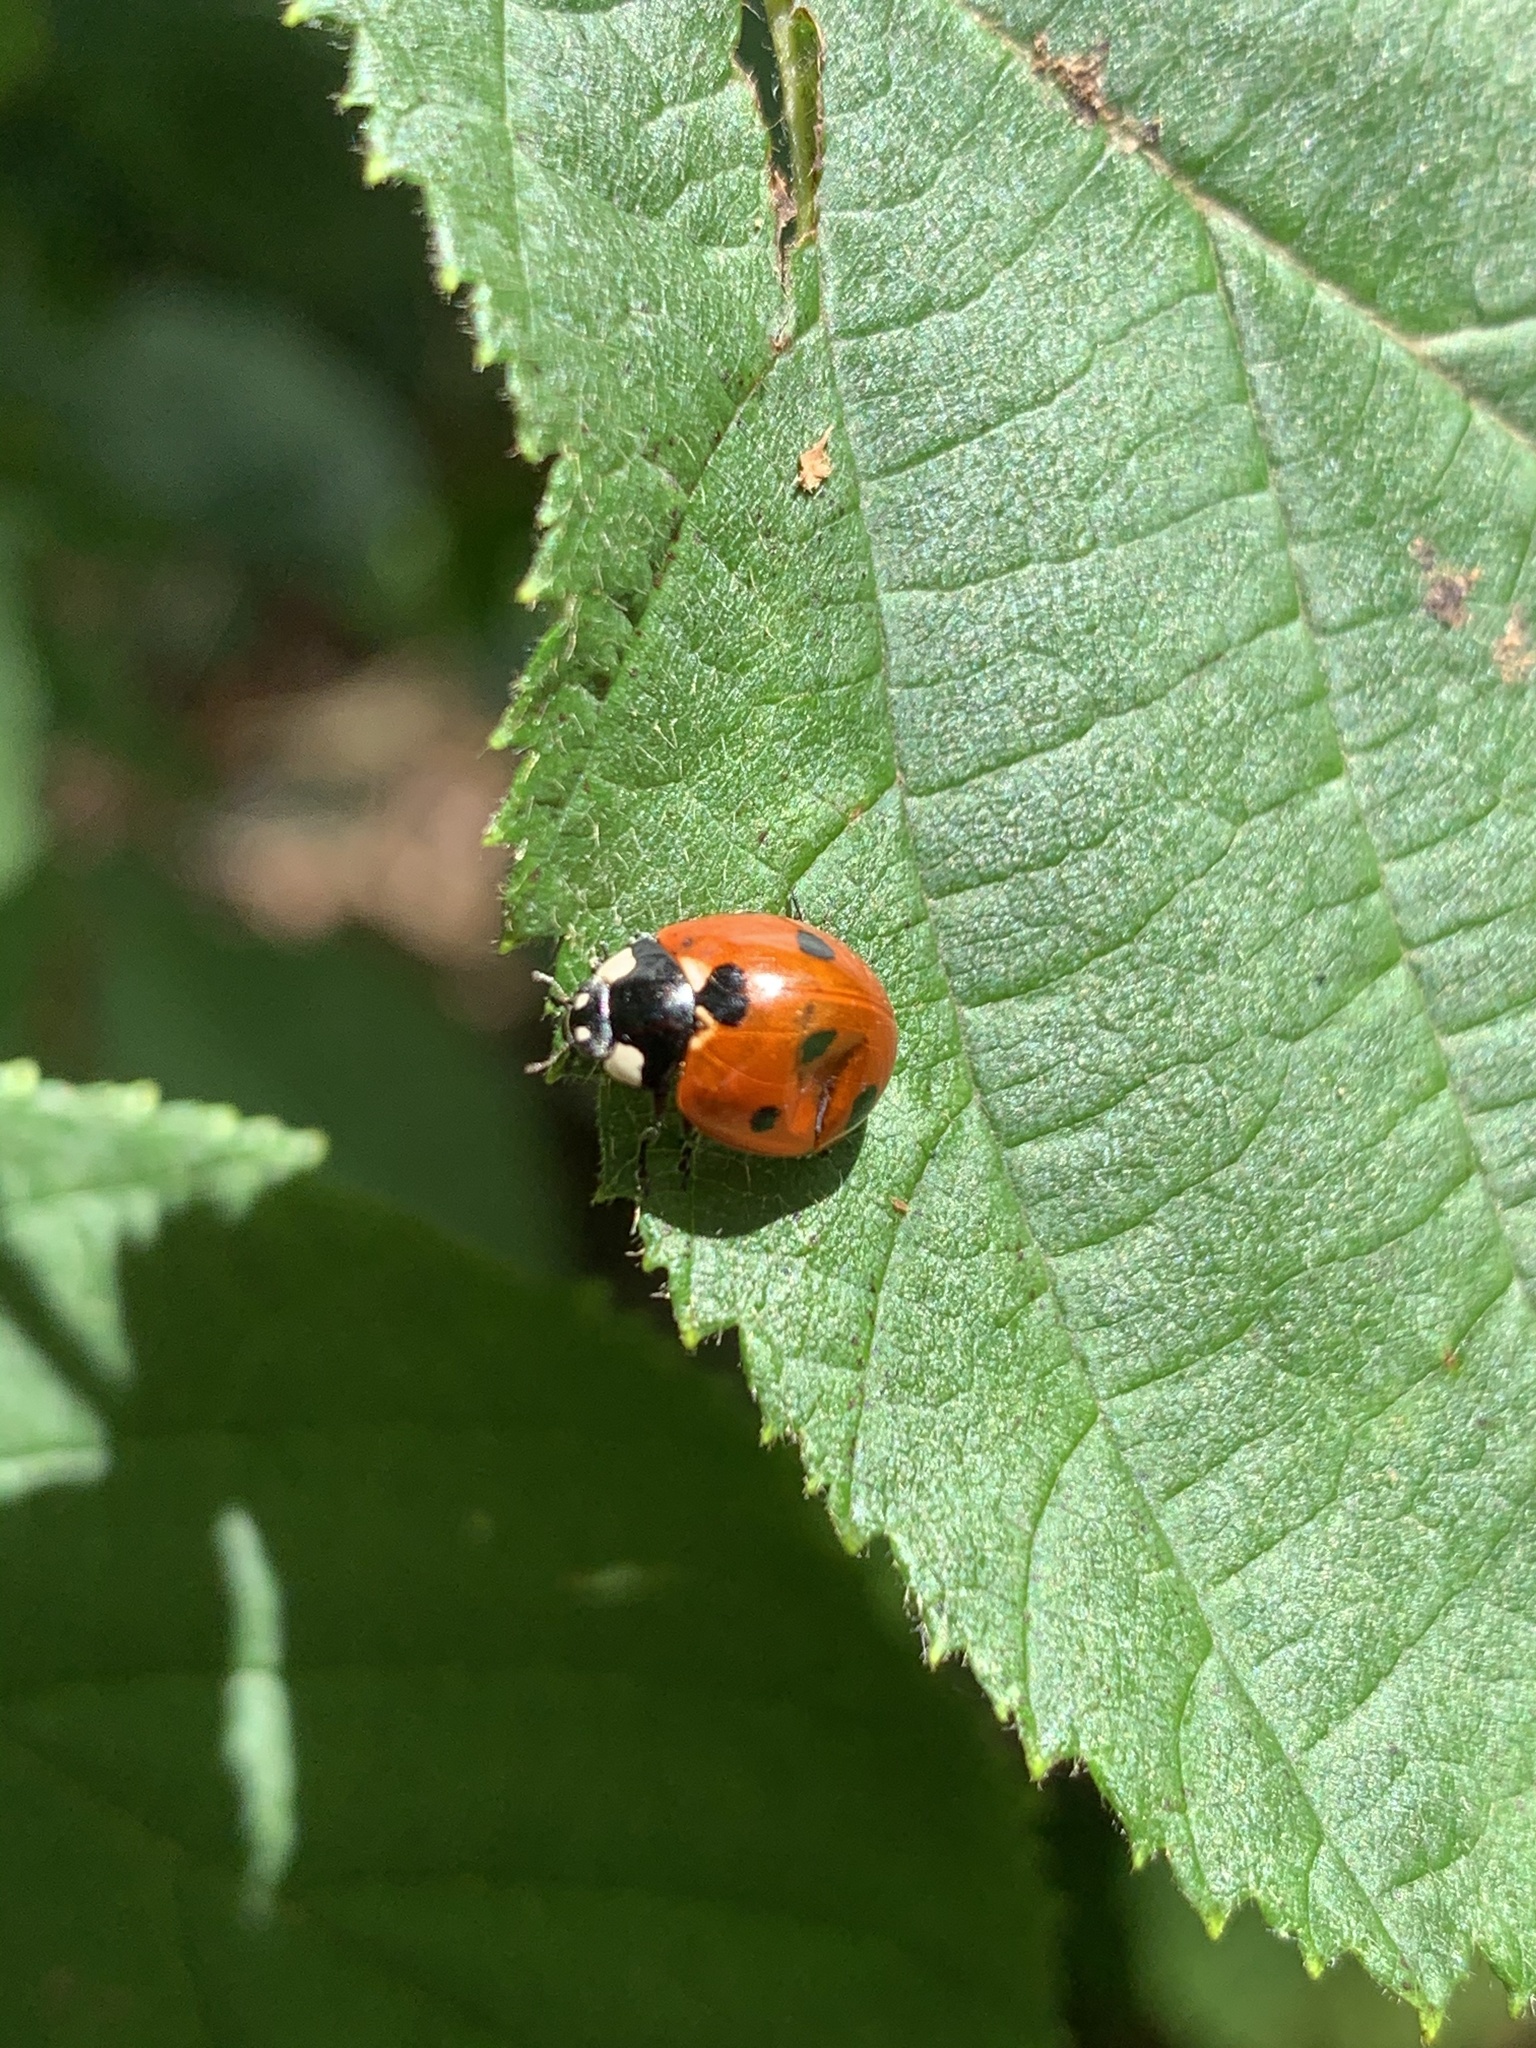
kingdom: Animalia
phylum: Arthropoda
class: Insecta
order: Coleoptera
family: Coccinellidae
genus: Coccinella
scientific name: Coccinella septempunctata
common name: Sevenspotted lady beetle
